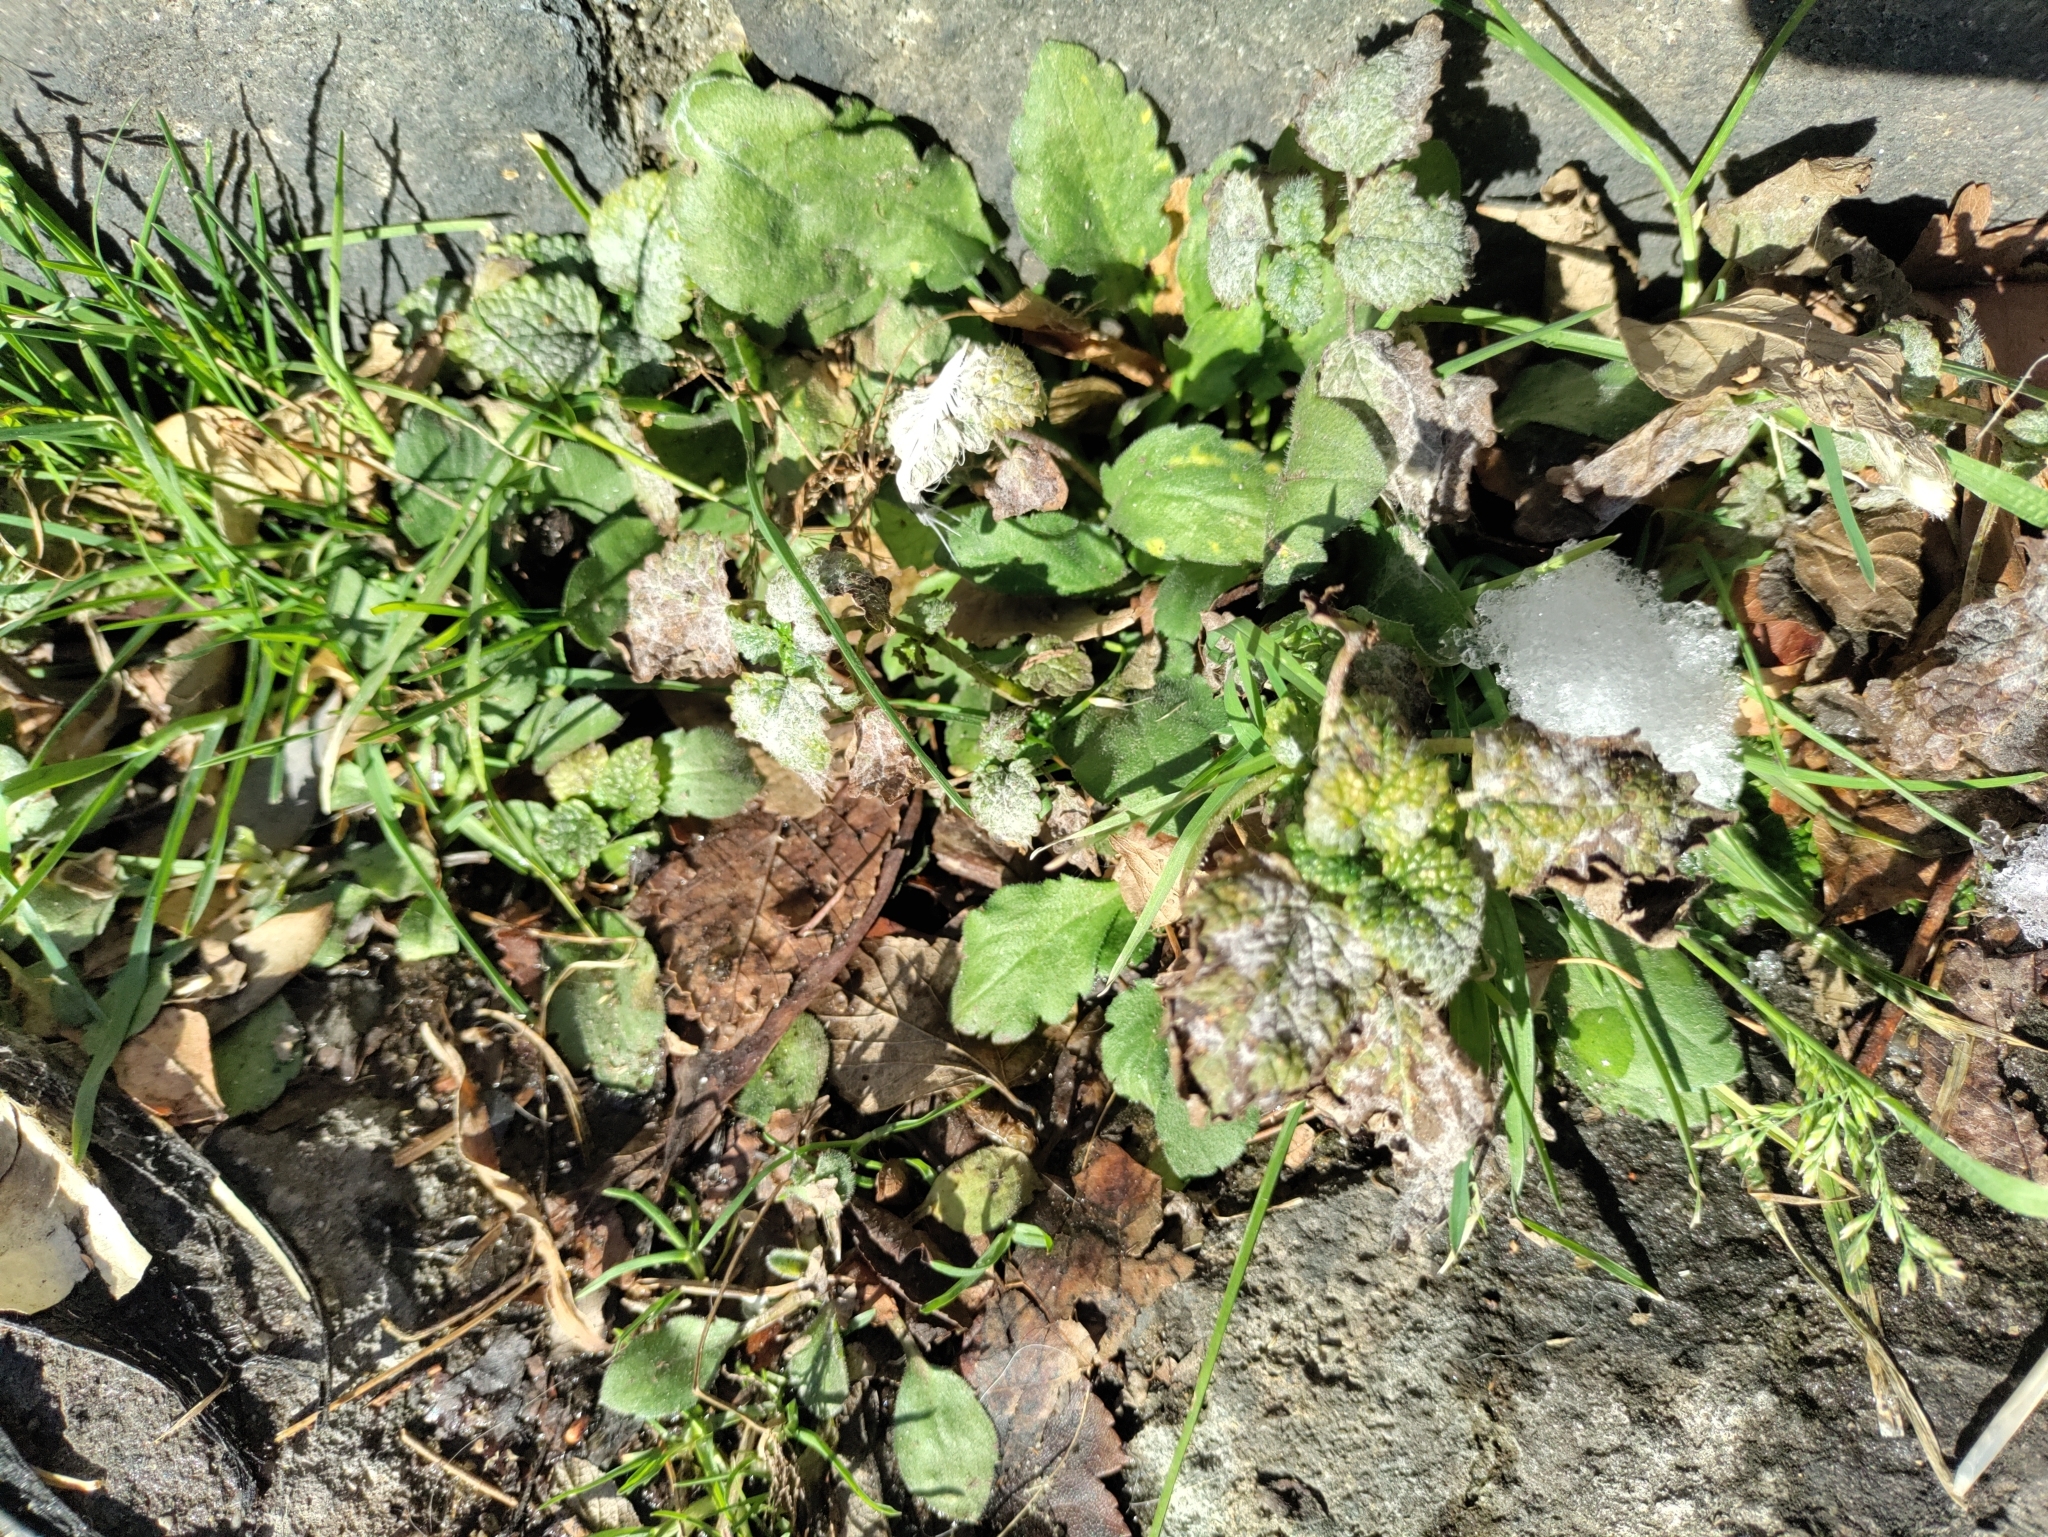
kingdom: Fungi
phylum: Ascomycota
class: Leotiomycetes
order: Helotiales
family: Erysiphaceae
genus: Neoerysiphe
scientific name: Neoerysiphe galeopsidis
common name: Mint mildew
